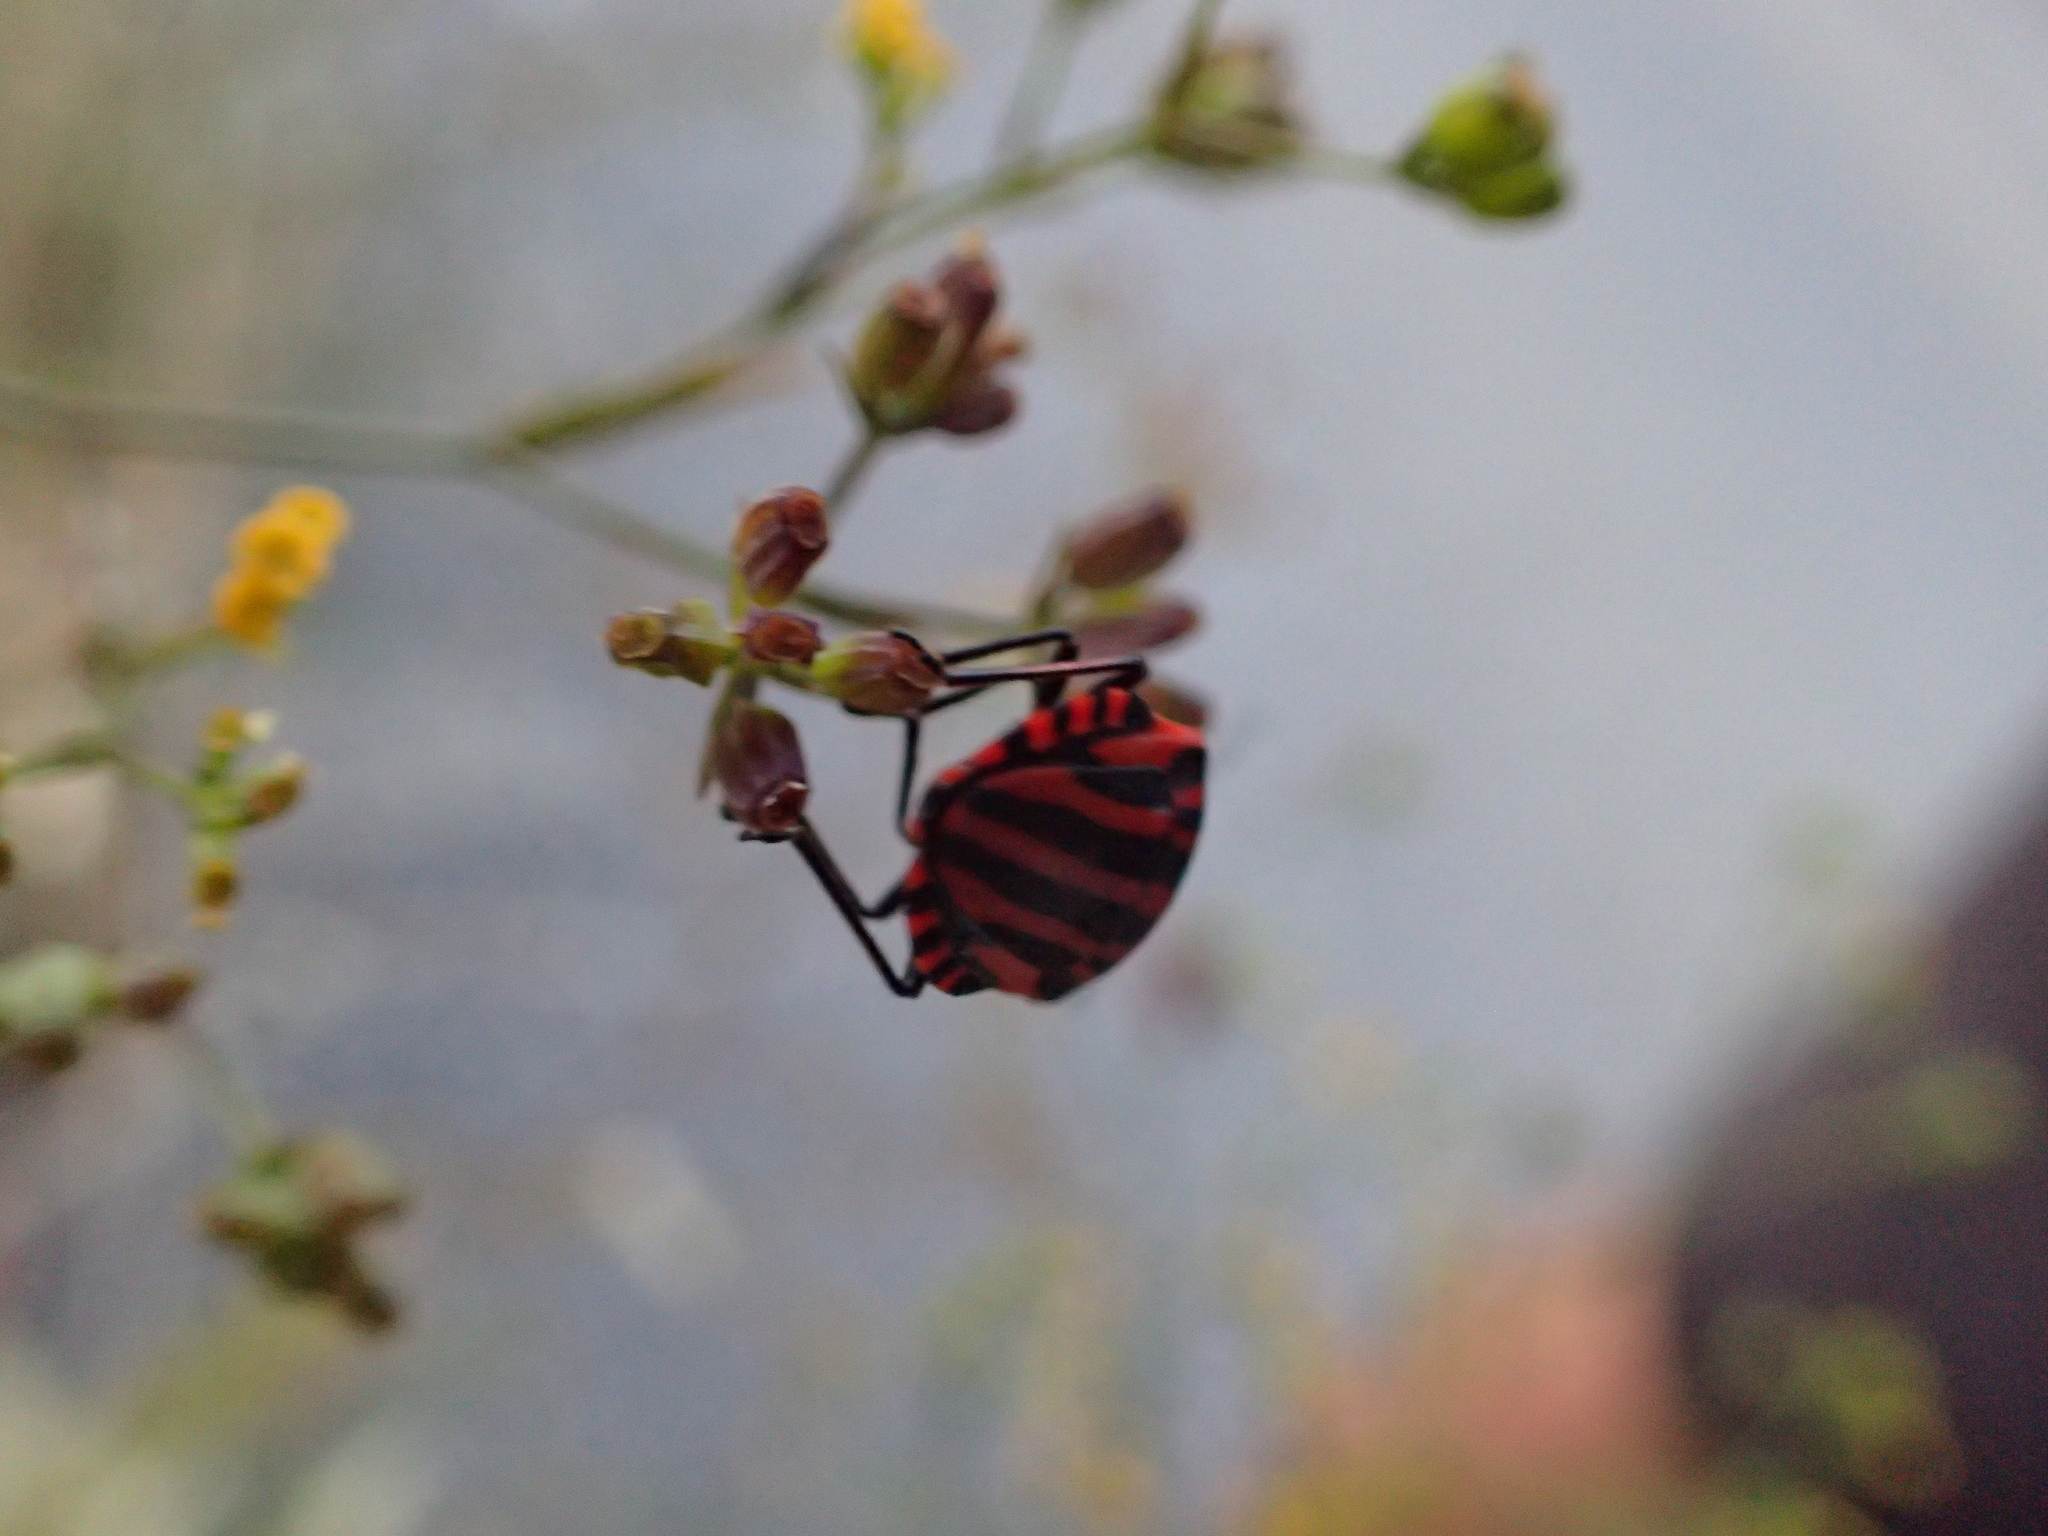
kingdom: Animalia
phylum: Arthropoda
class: Insecta
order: Hemiptera
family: Pentatomidae
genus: Graphosoma
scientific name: Graphosoma italicum
